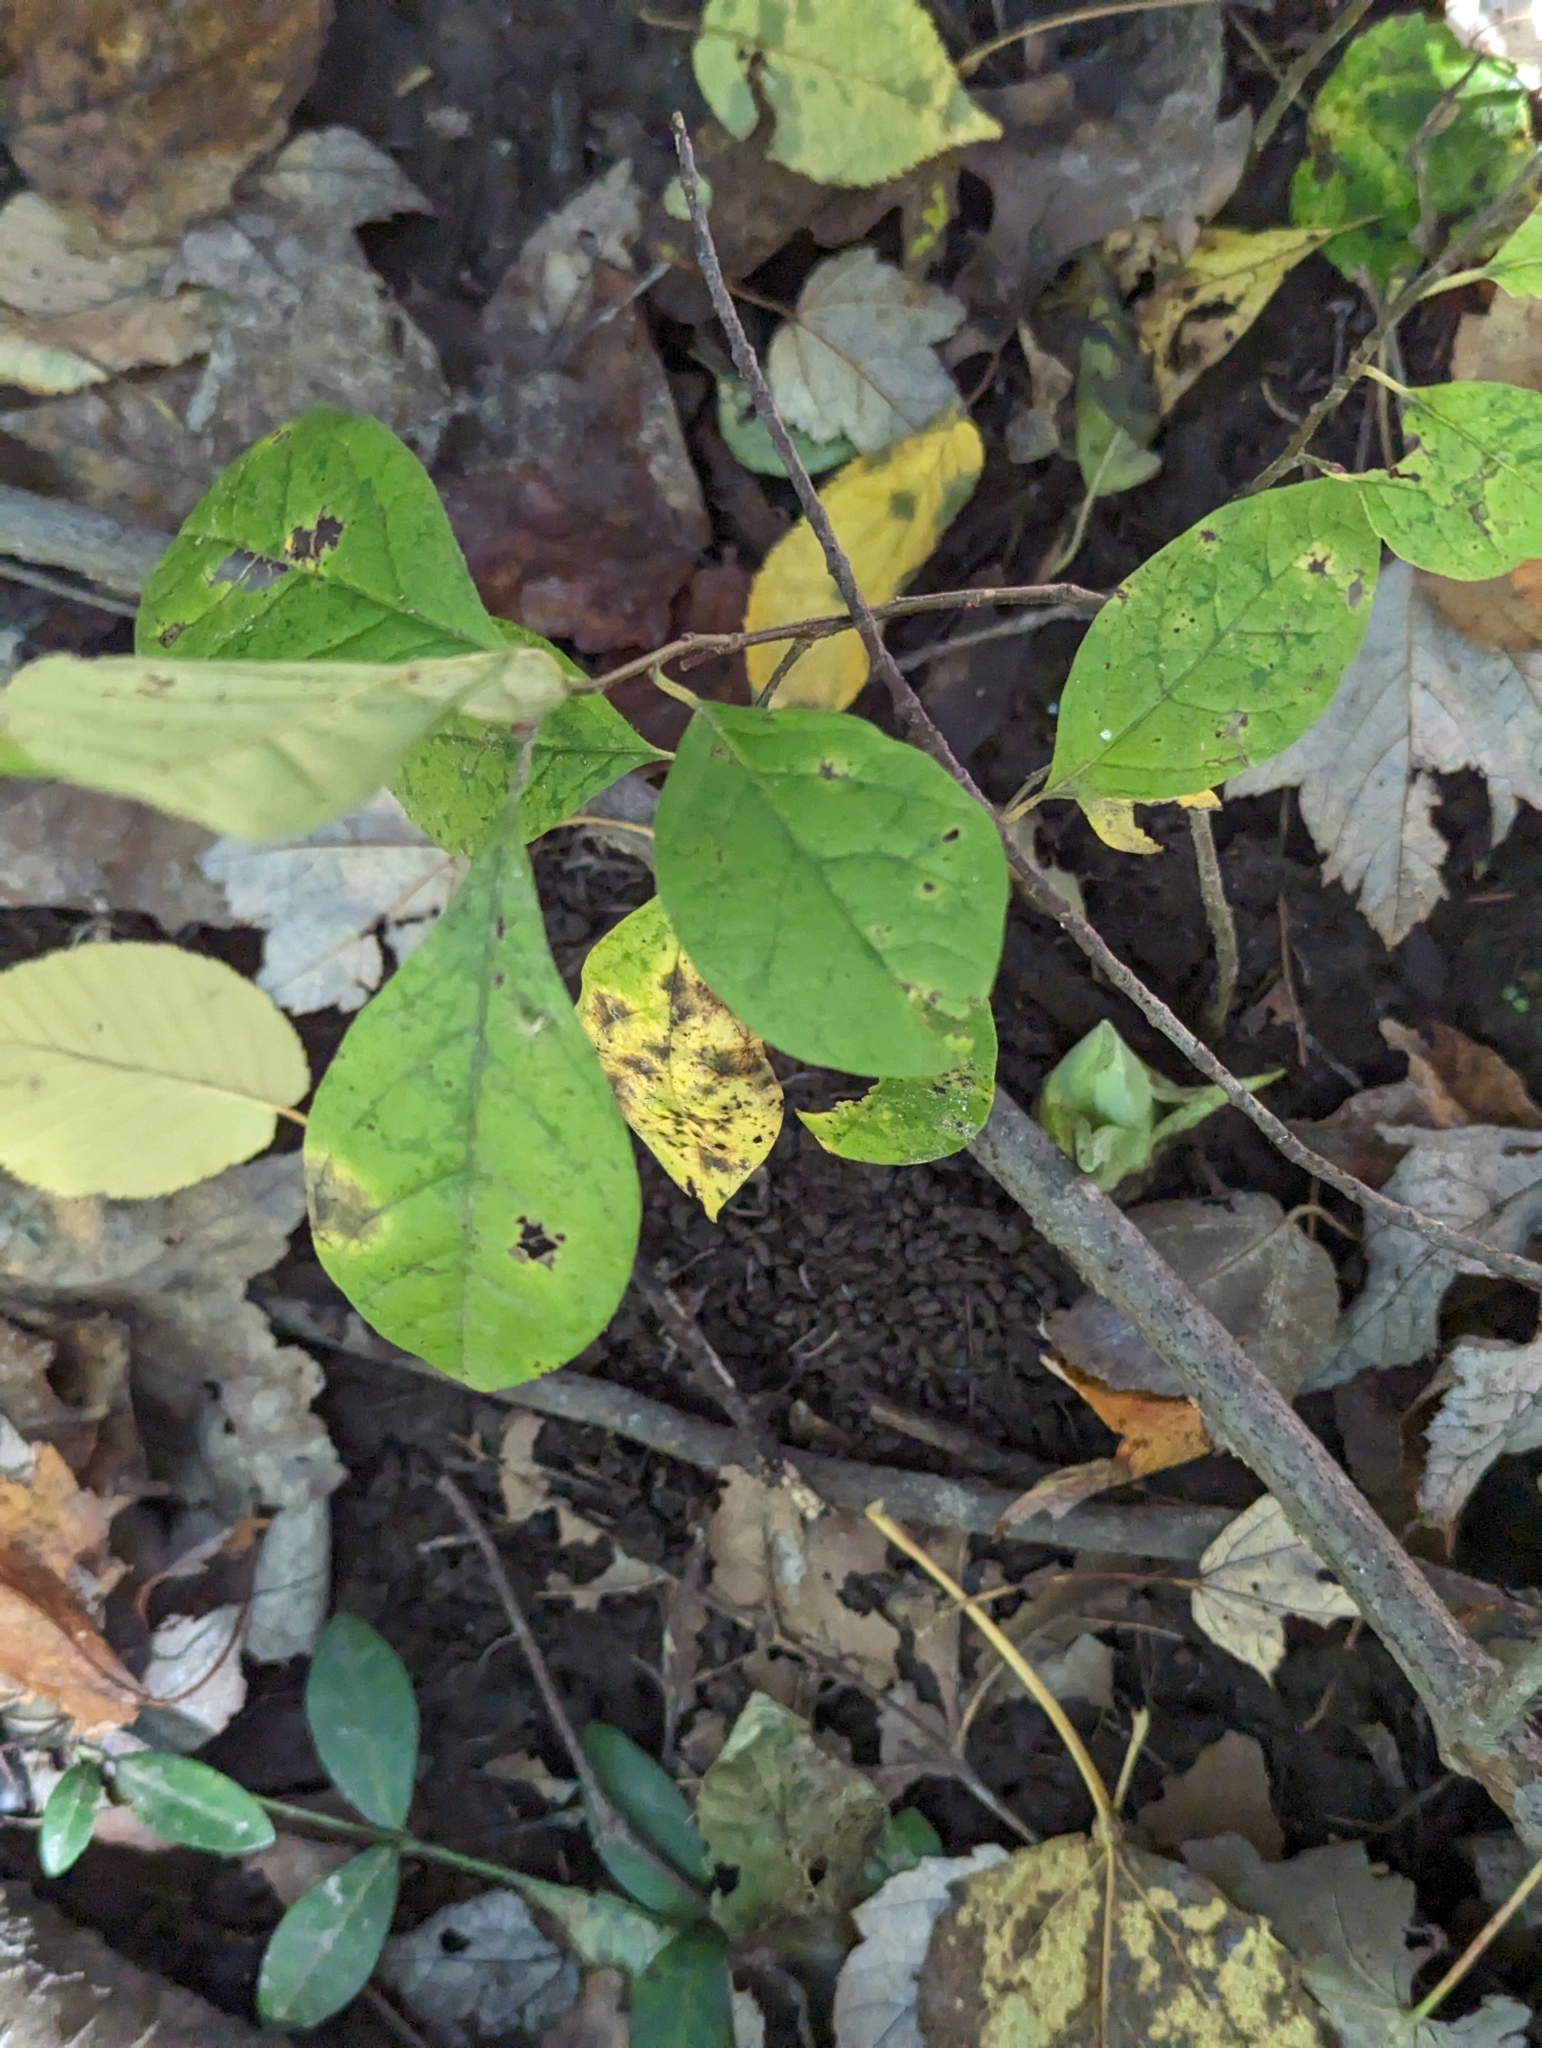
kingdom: Plantae
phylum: Tracheophyta
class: Magnoliopsida
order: Laurales
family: Lauraceae
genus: Lindera
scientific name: Lindera benzoin
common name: Spicebush
